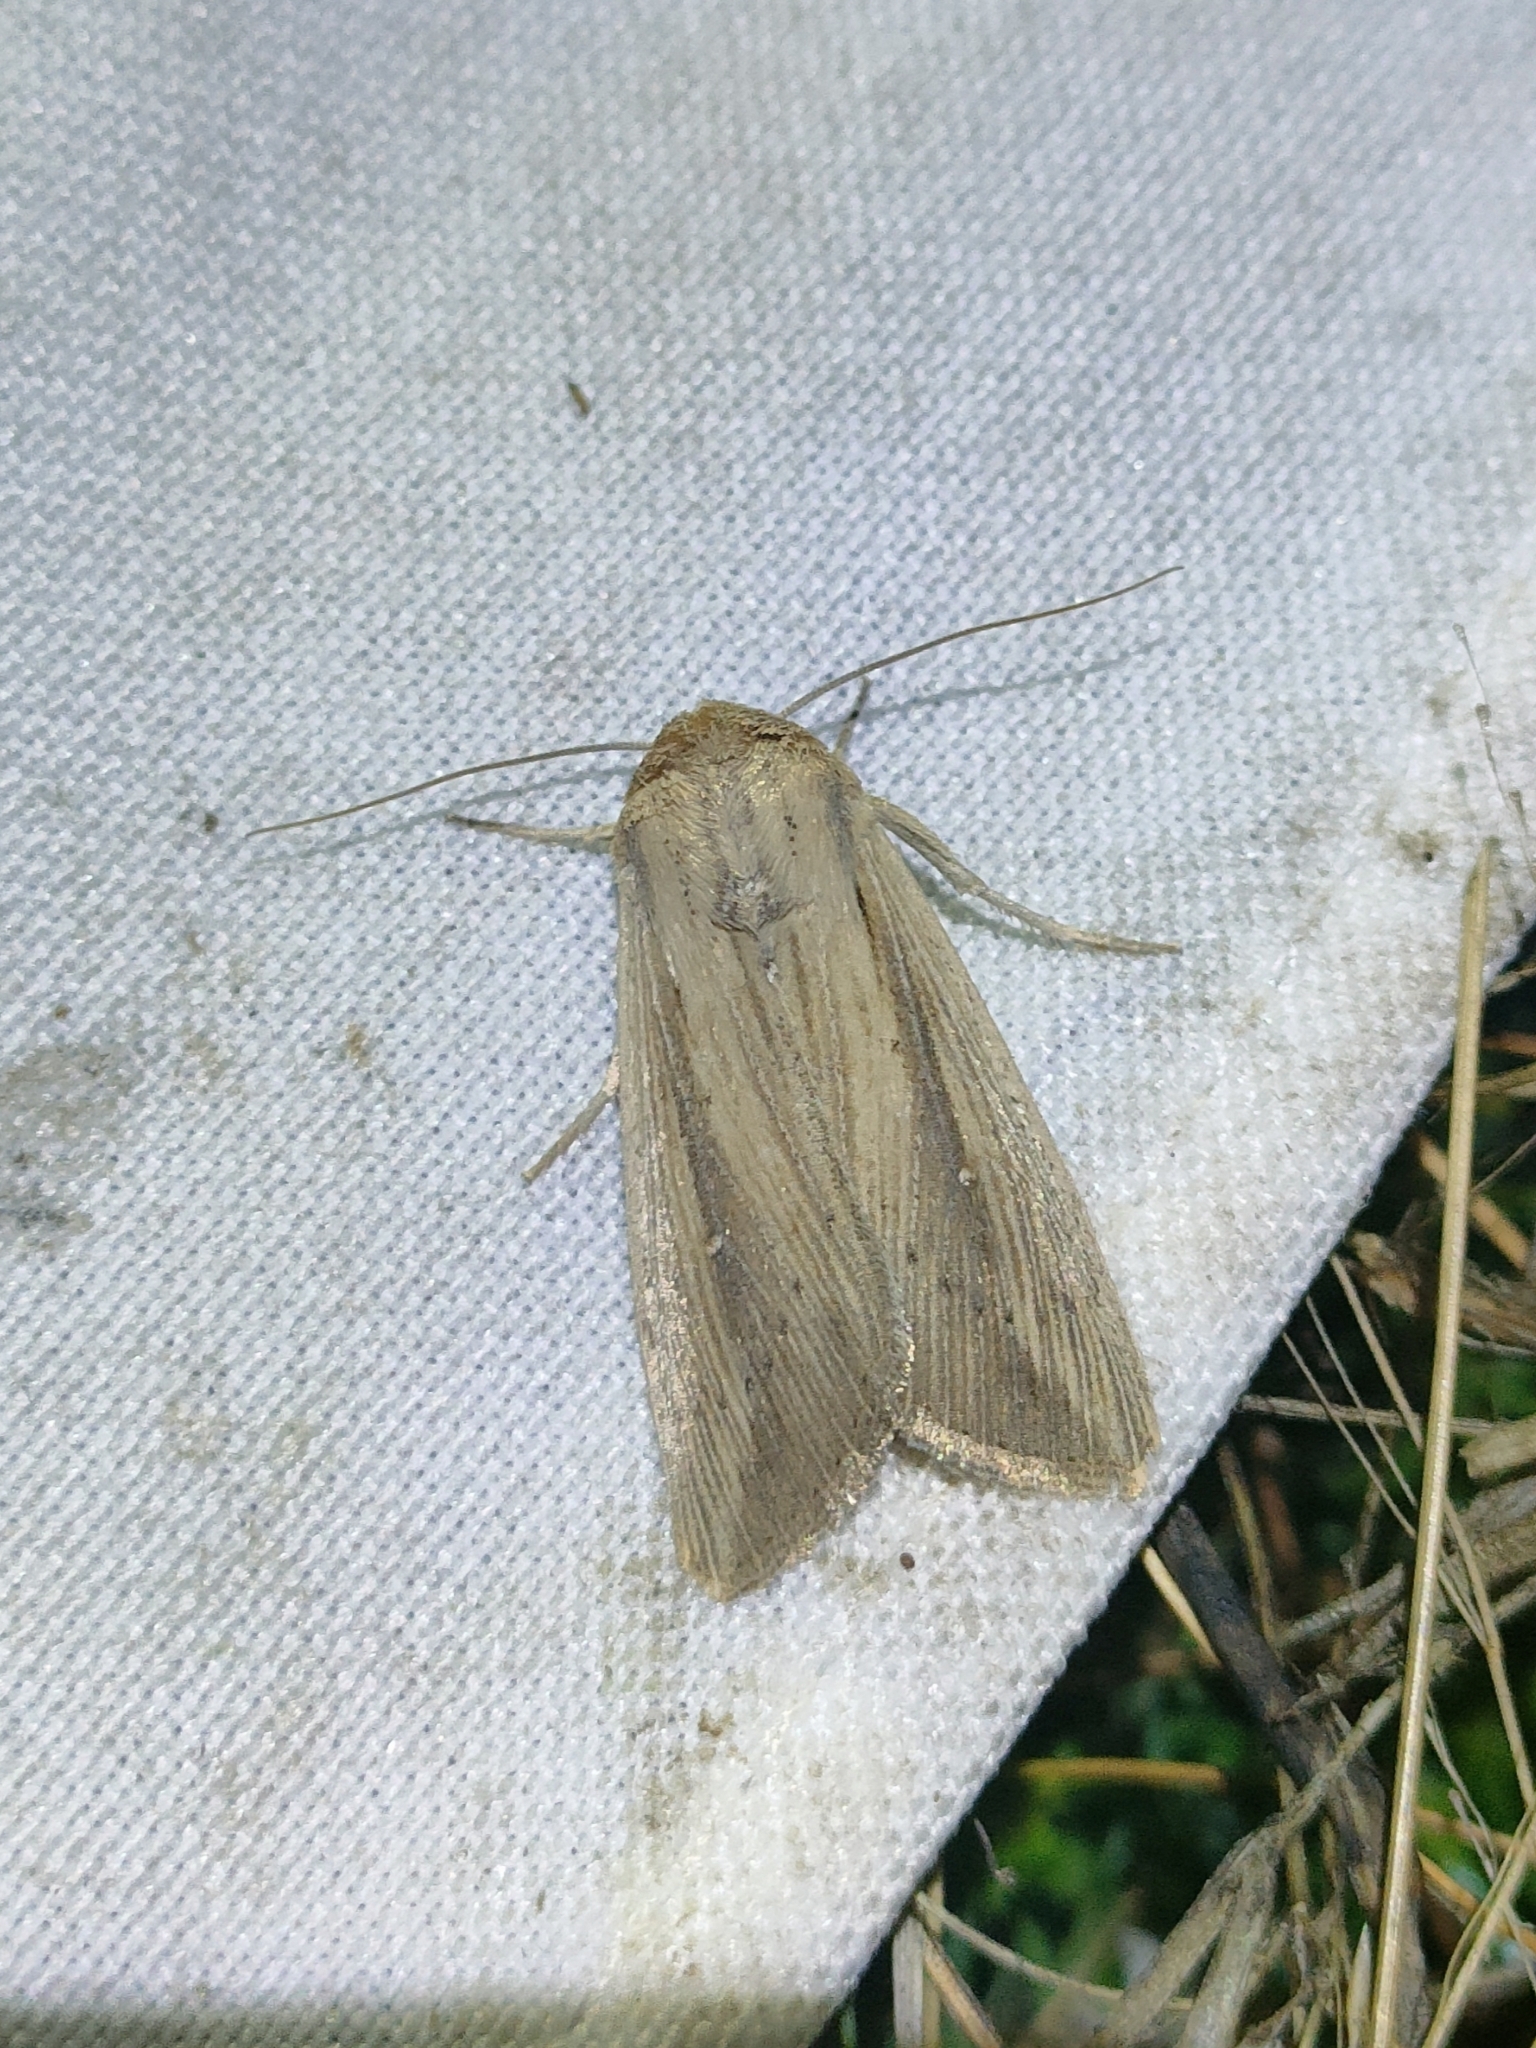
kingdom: Animalia
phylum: Arthropoda
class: Insecta
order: Lepidoptera
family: Noctuidae
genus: Leucania
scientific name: Leucania loreyi
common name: The cosmopolitan
